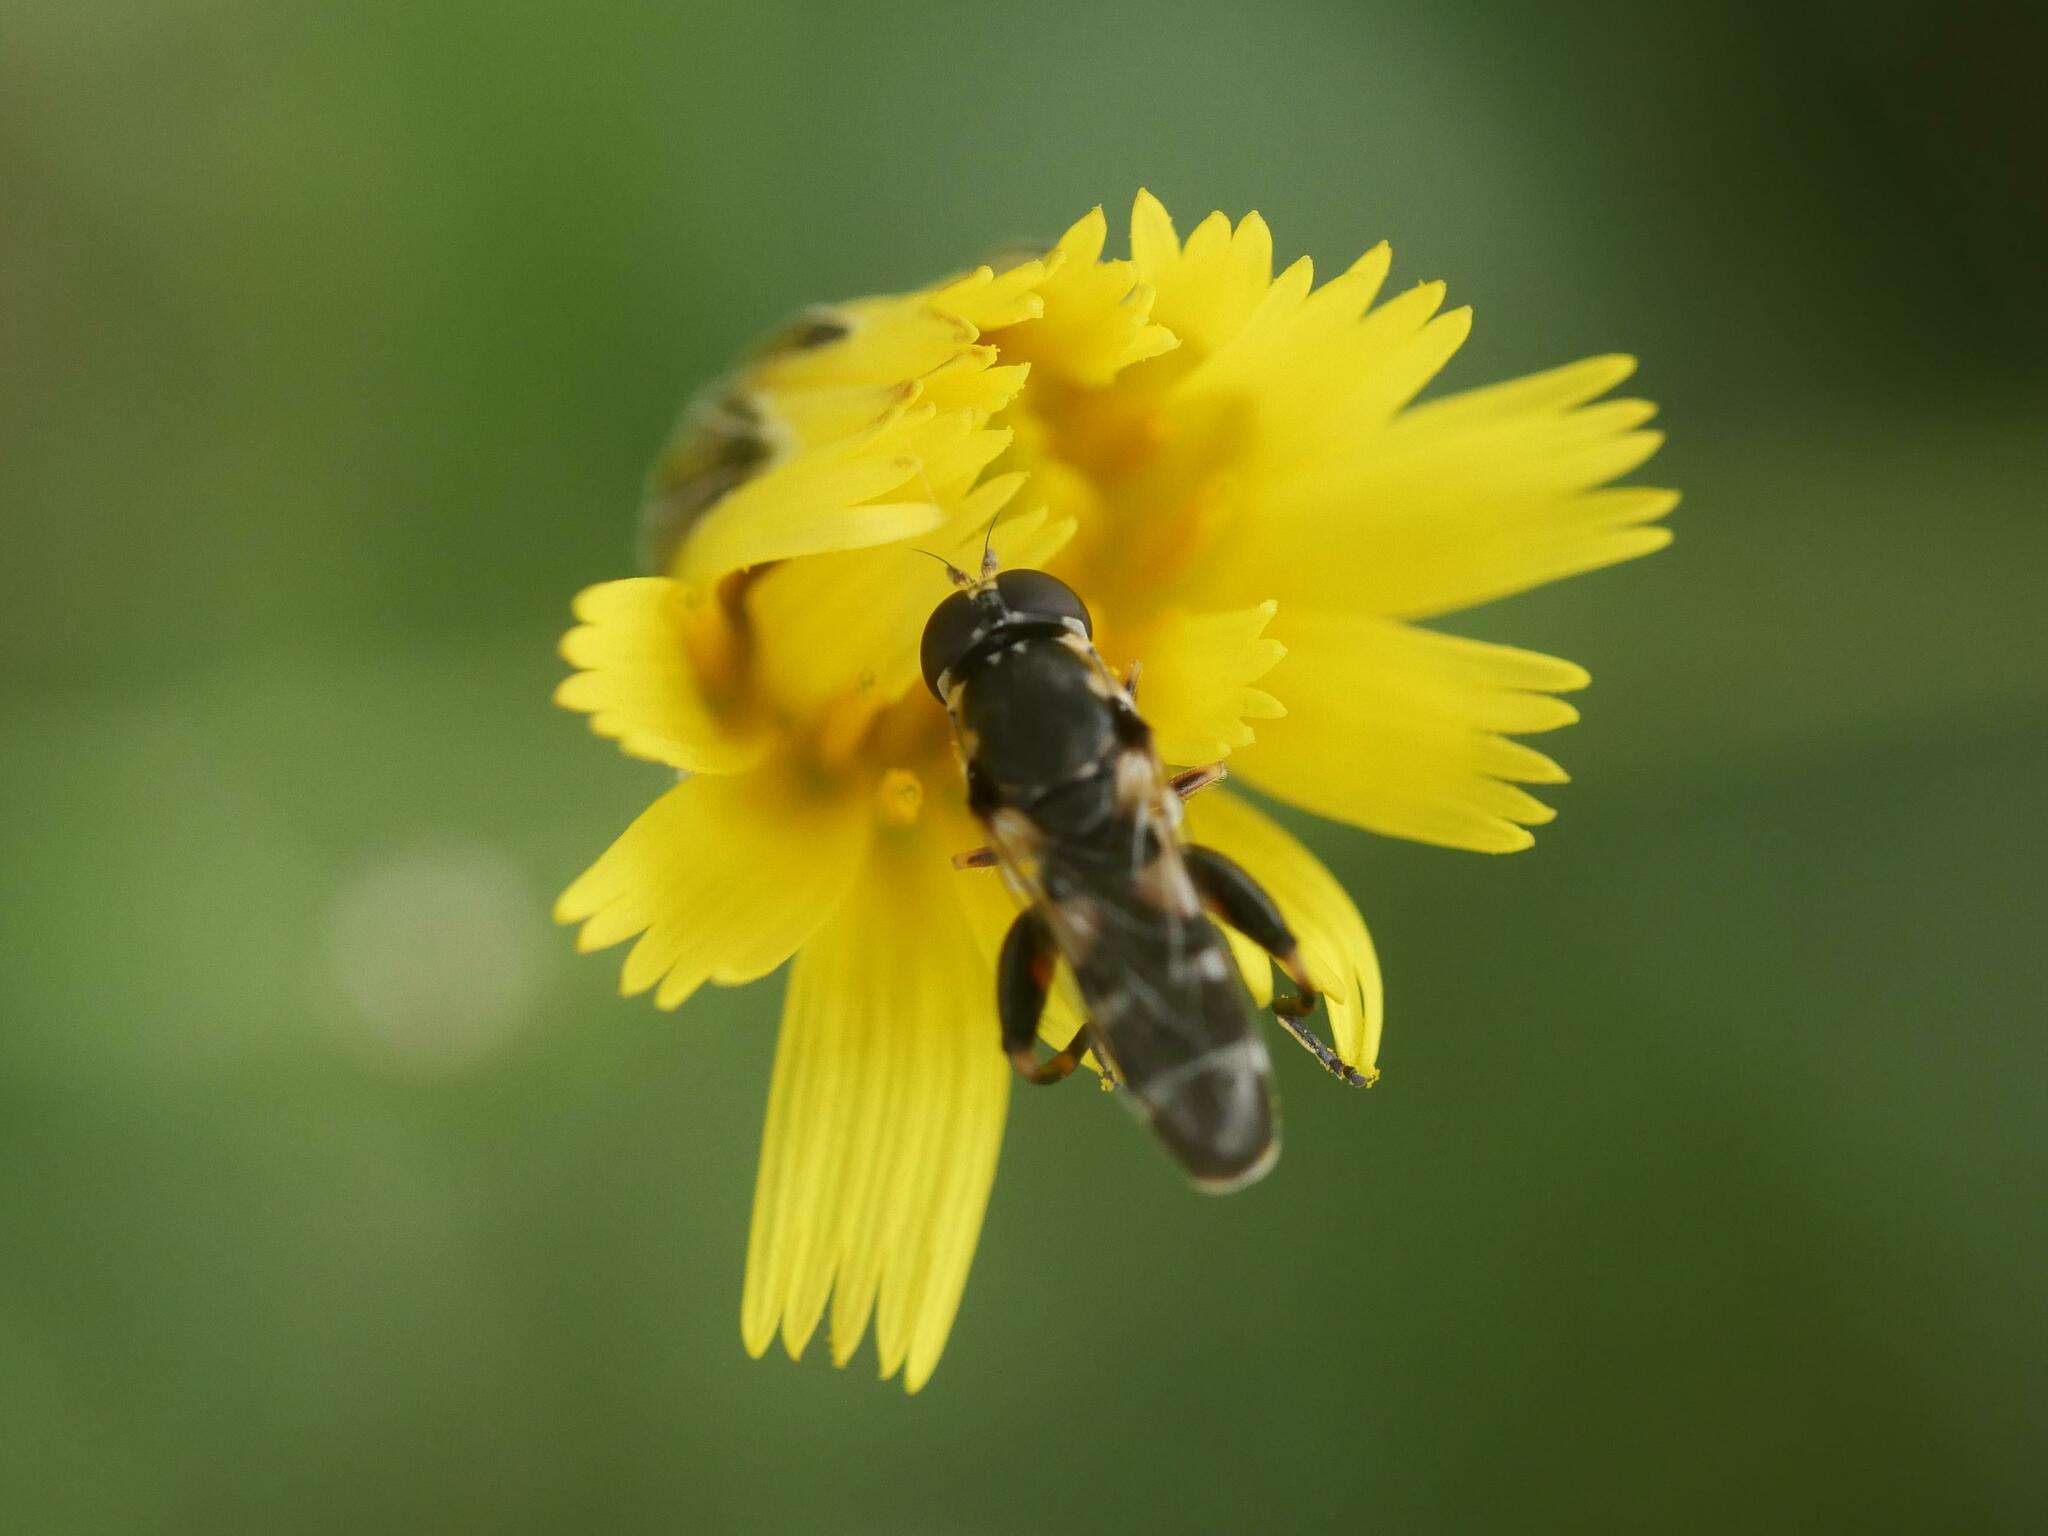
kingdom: Animalia
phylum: Arthropoda
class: Insecta
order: Diptera
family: Syrphidae
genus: Syritta
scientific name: Syritta pipiens
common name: Hover fly
